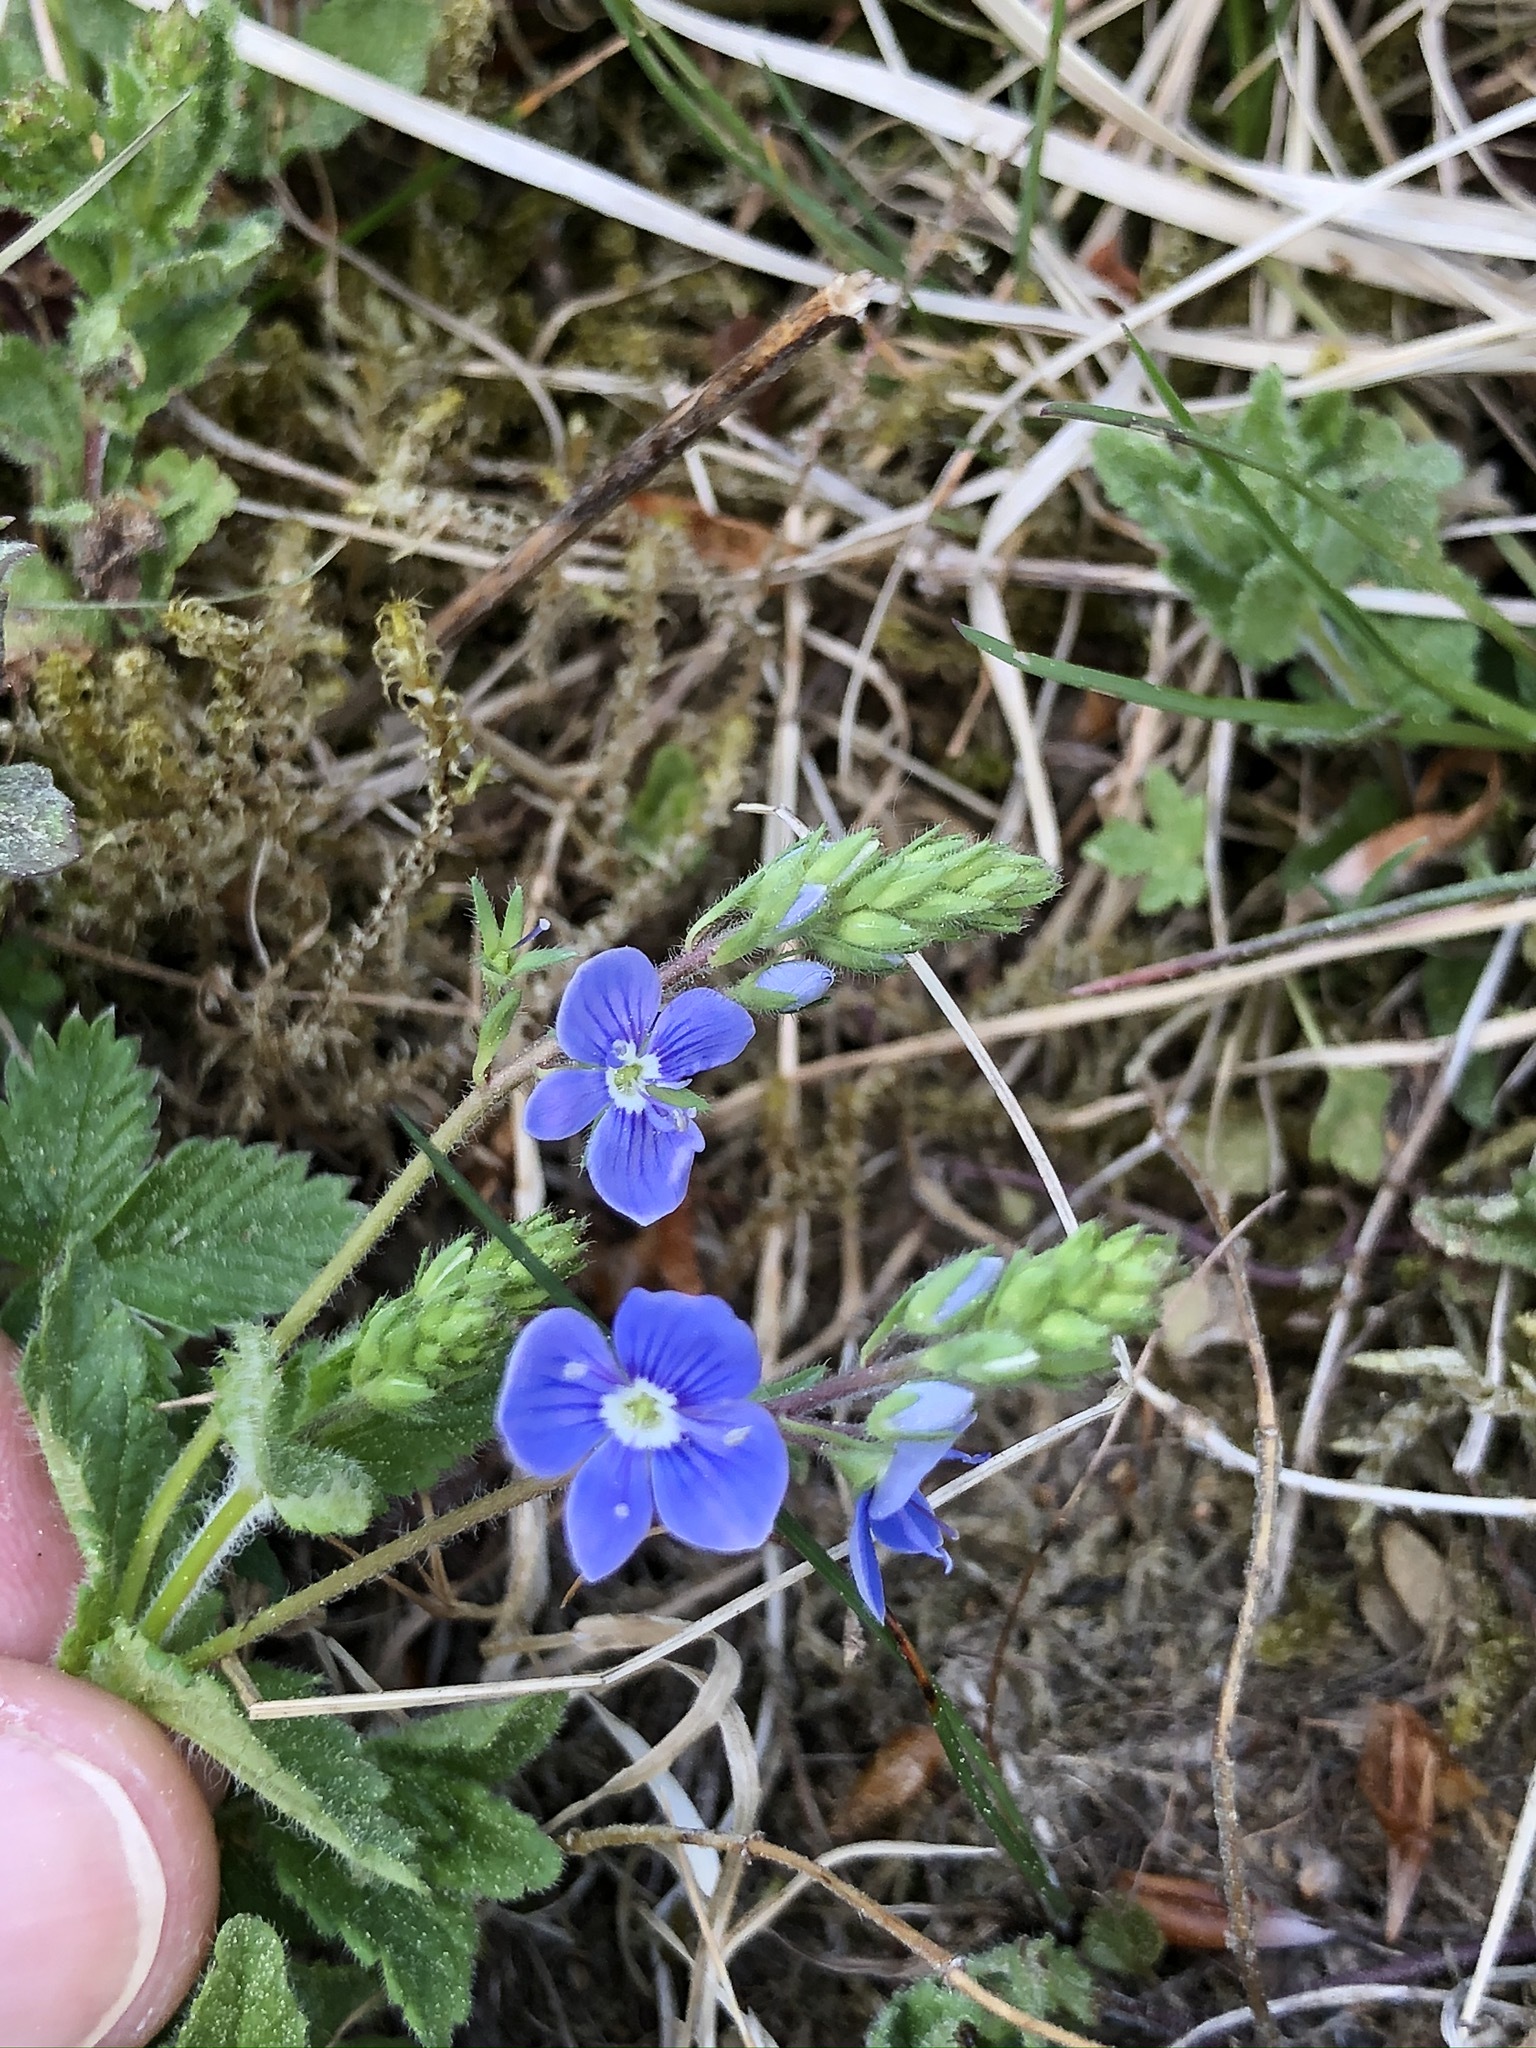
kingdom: Plantae
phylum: Tracheophyta
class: Magnoliopsida
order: Lamiales
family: Plantaginaceae
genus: Veronica
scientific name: Veronica chamaedrys
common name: Germander speedwell
